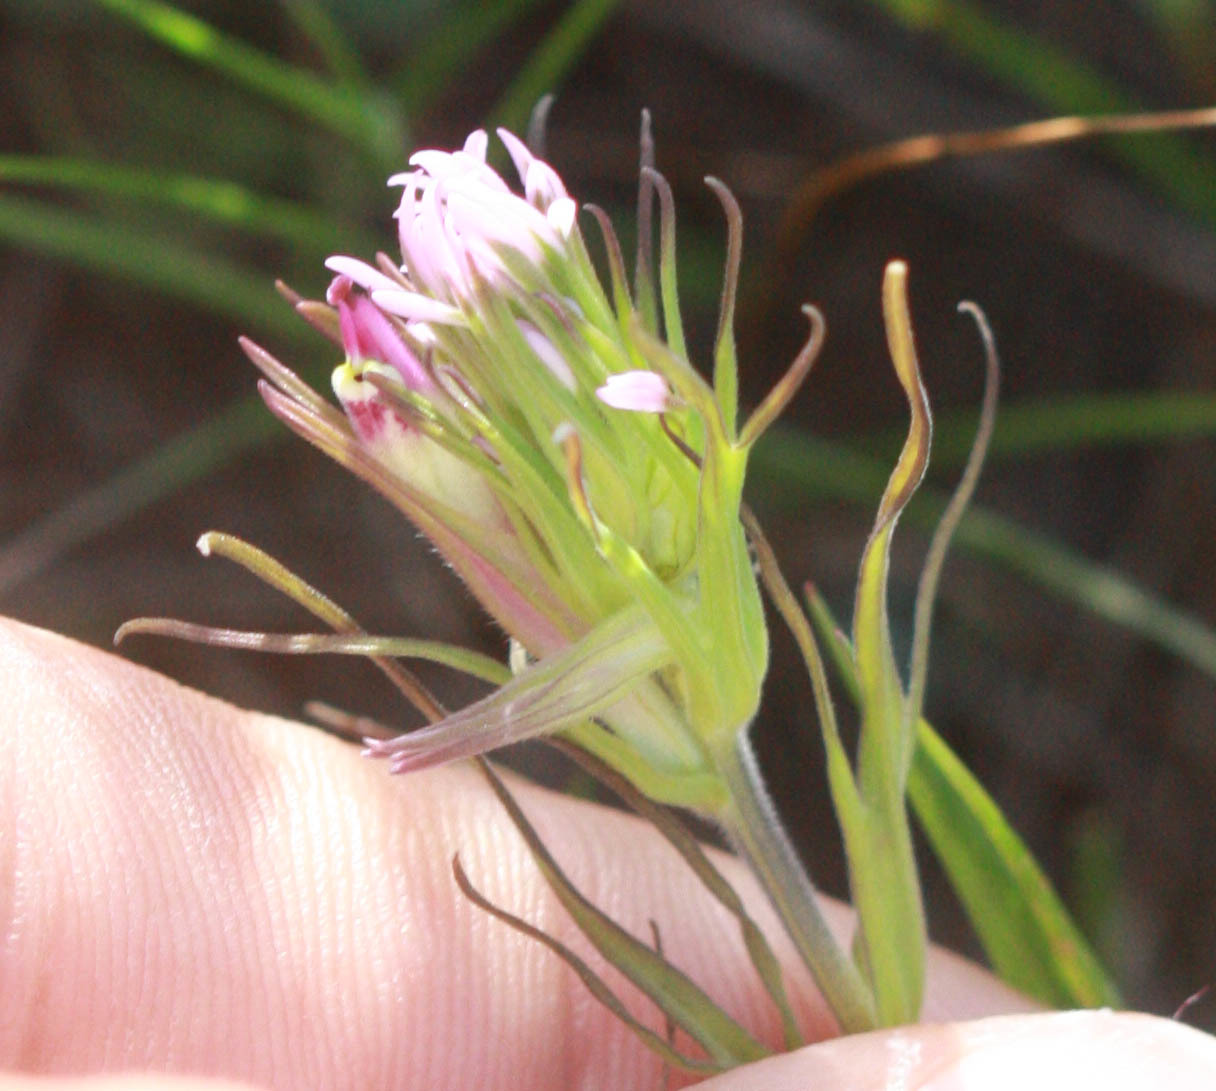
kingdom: Plantae
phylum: Tracheophyta
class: Magnoliopsida
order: Lamiales
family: Orobanchaceae
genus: Castilleja
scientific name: Castilleja densiflora
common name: Dense-flower indian paintbrush
